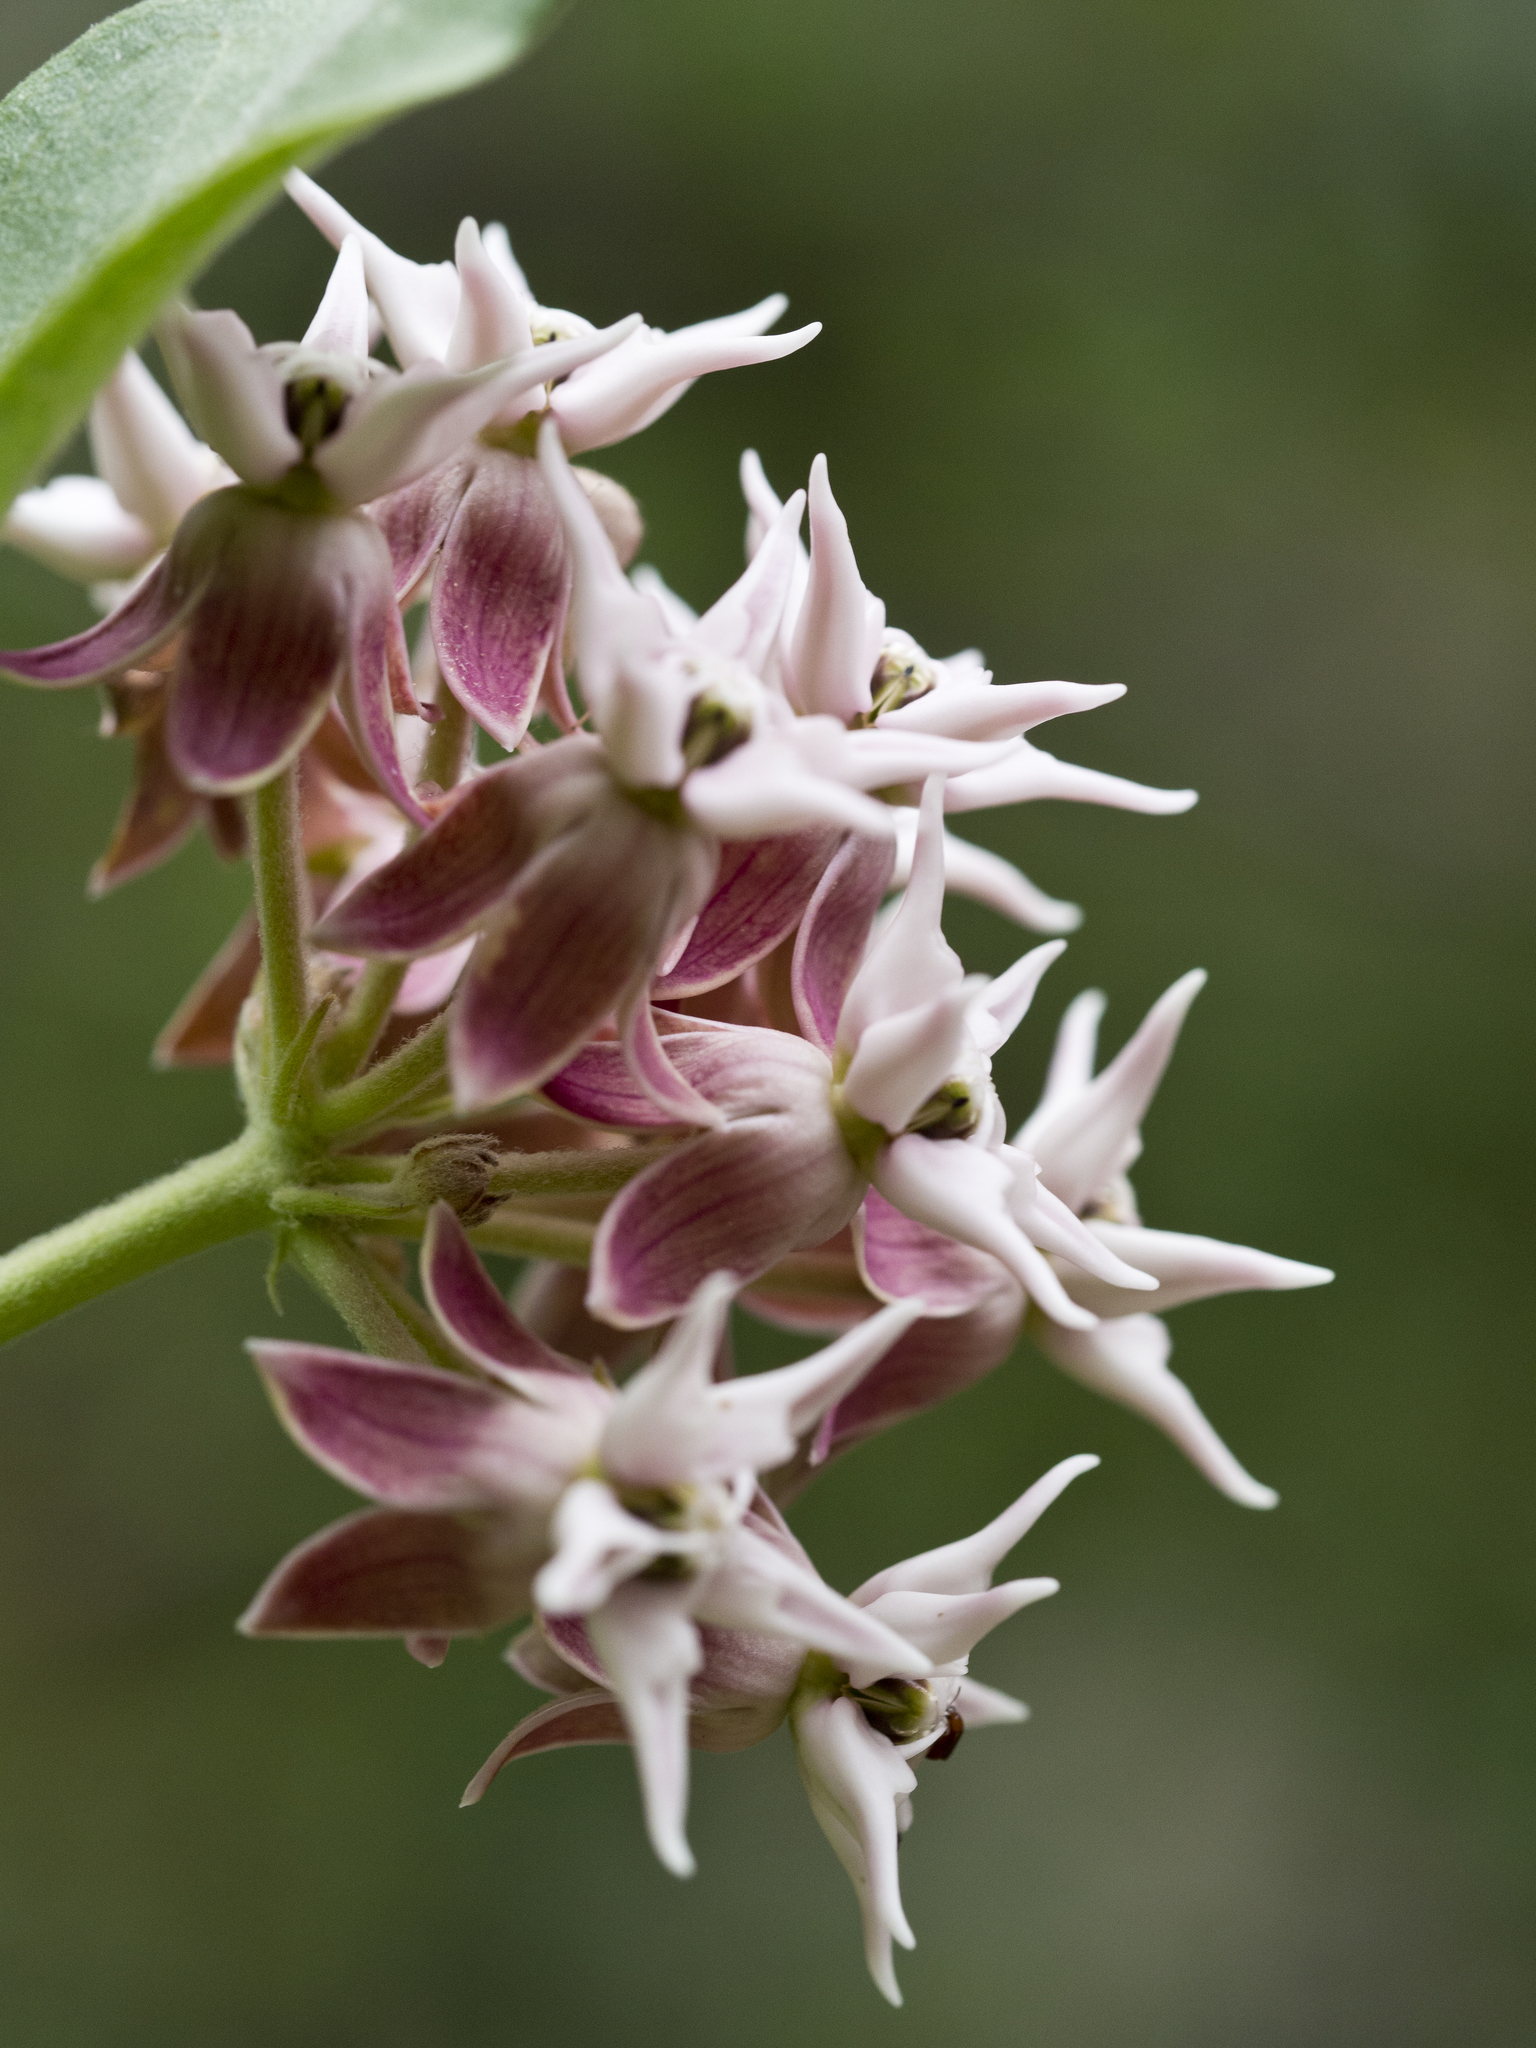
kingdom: Plantae
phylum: Tracheophyta
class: Magnoliopsida
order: Gentianales
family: Apocynaceae
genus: Asclepias
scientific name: Asclepias speciosa
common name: Showy milkweed
